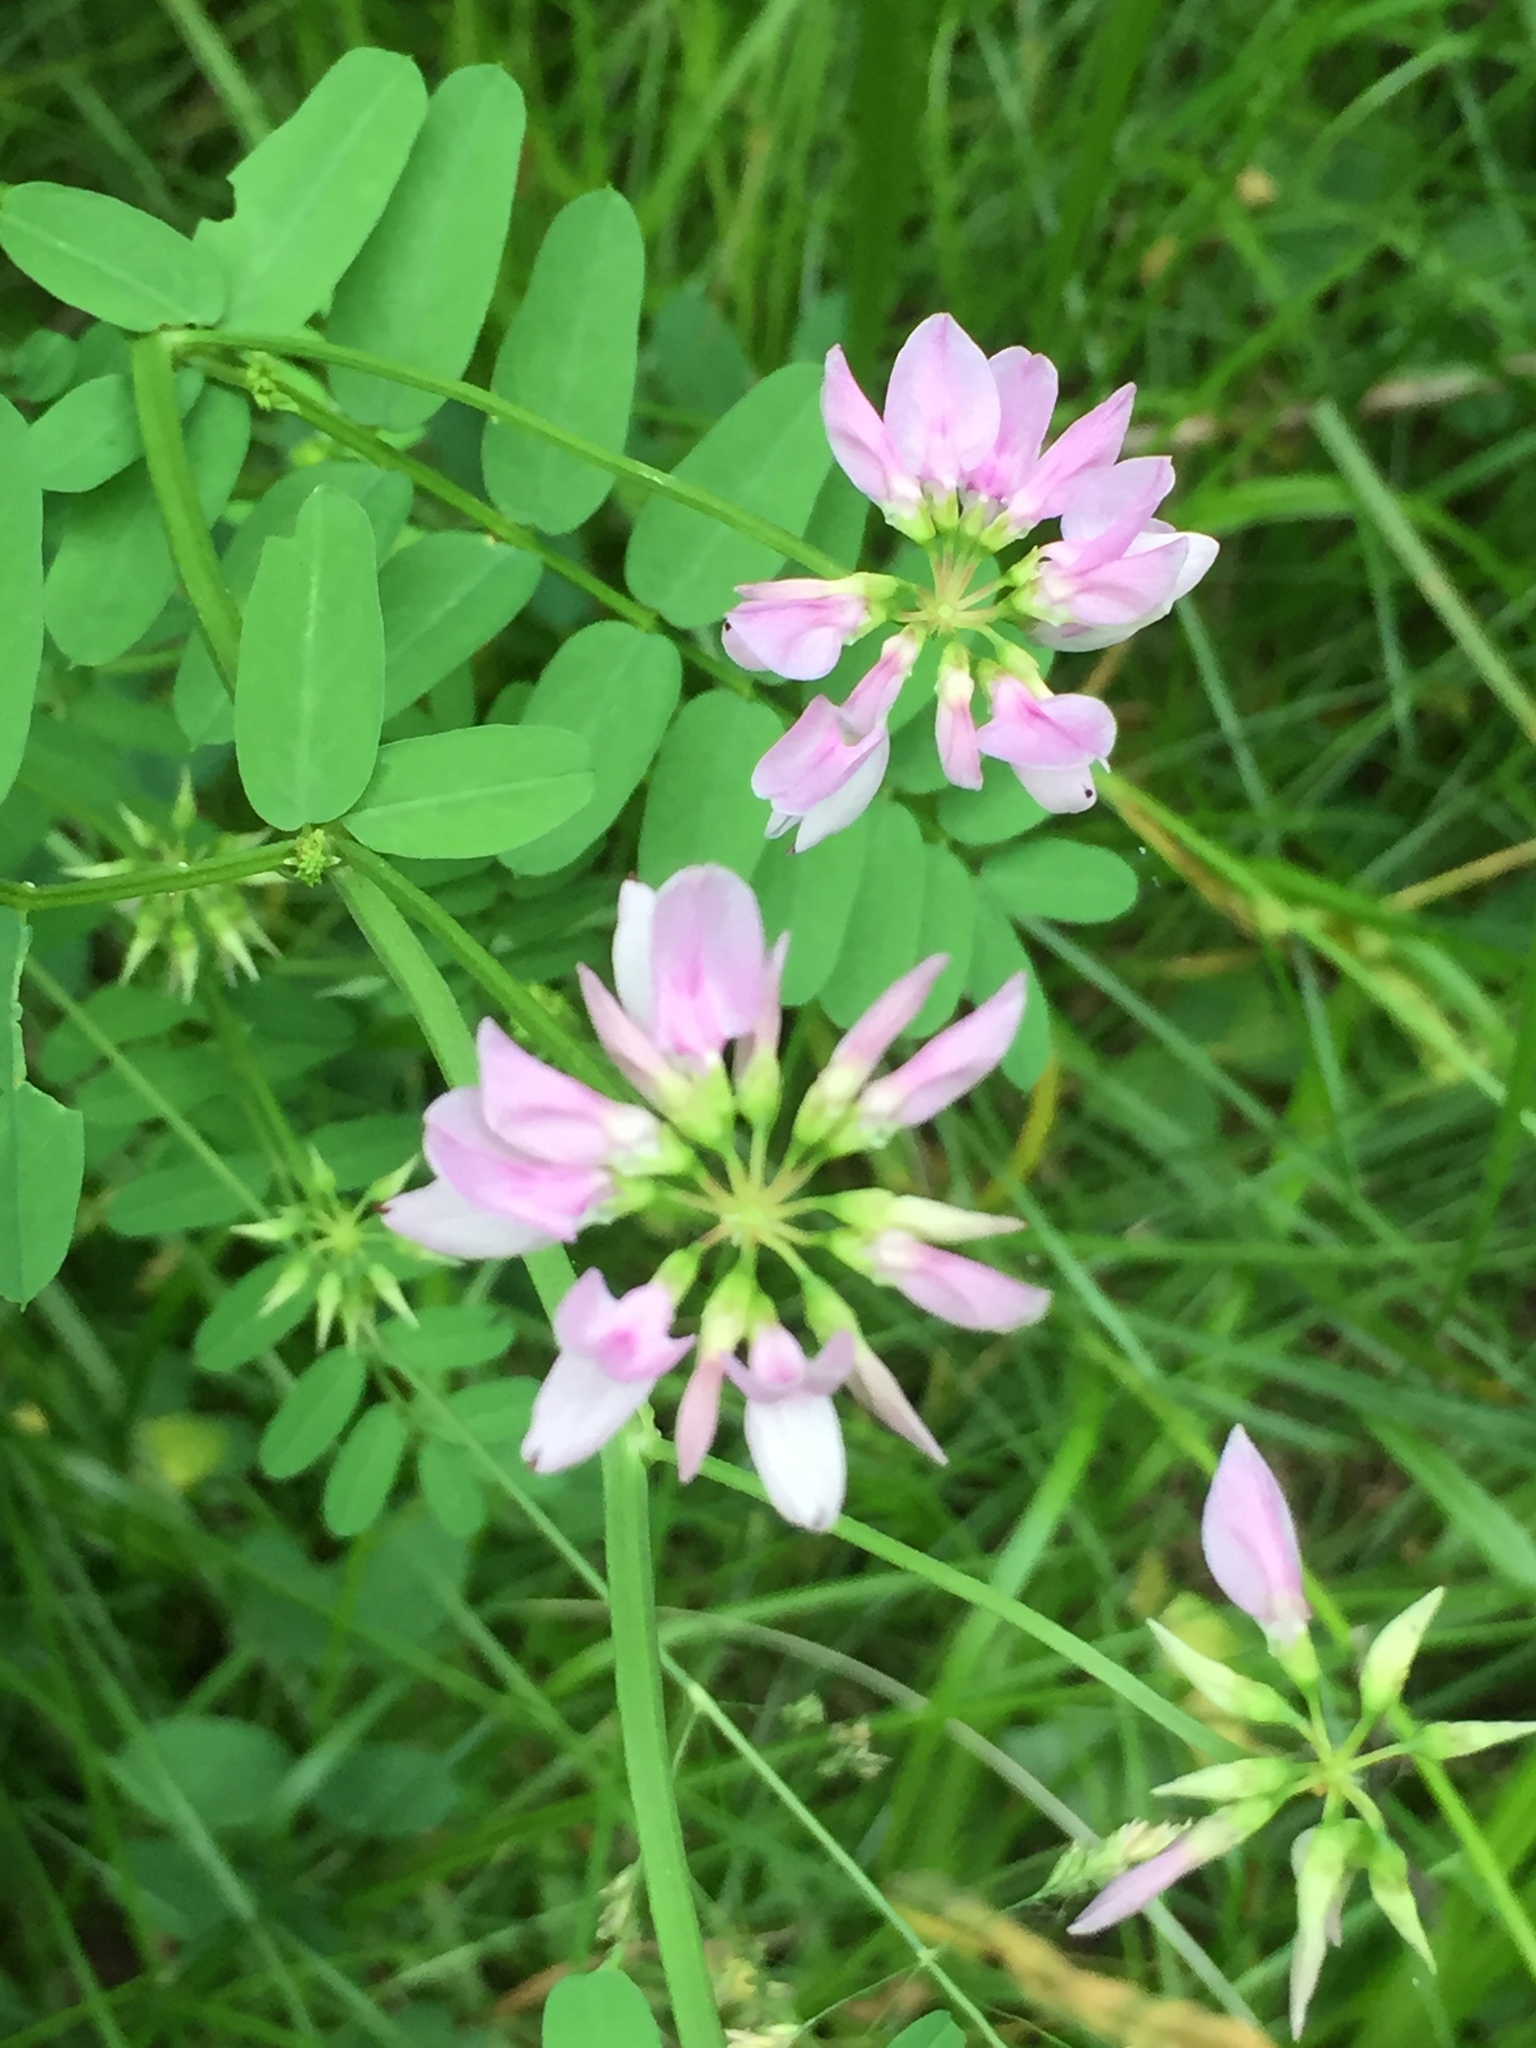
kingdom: Plantae
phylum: Tracheophyta
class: Magnoliopsida
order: Fabales
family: Fabaceae
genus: Coronilla
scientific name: Coronilla varia
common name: Crownvetch
